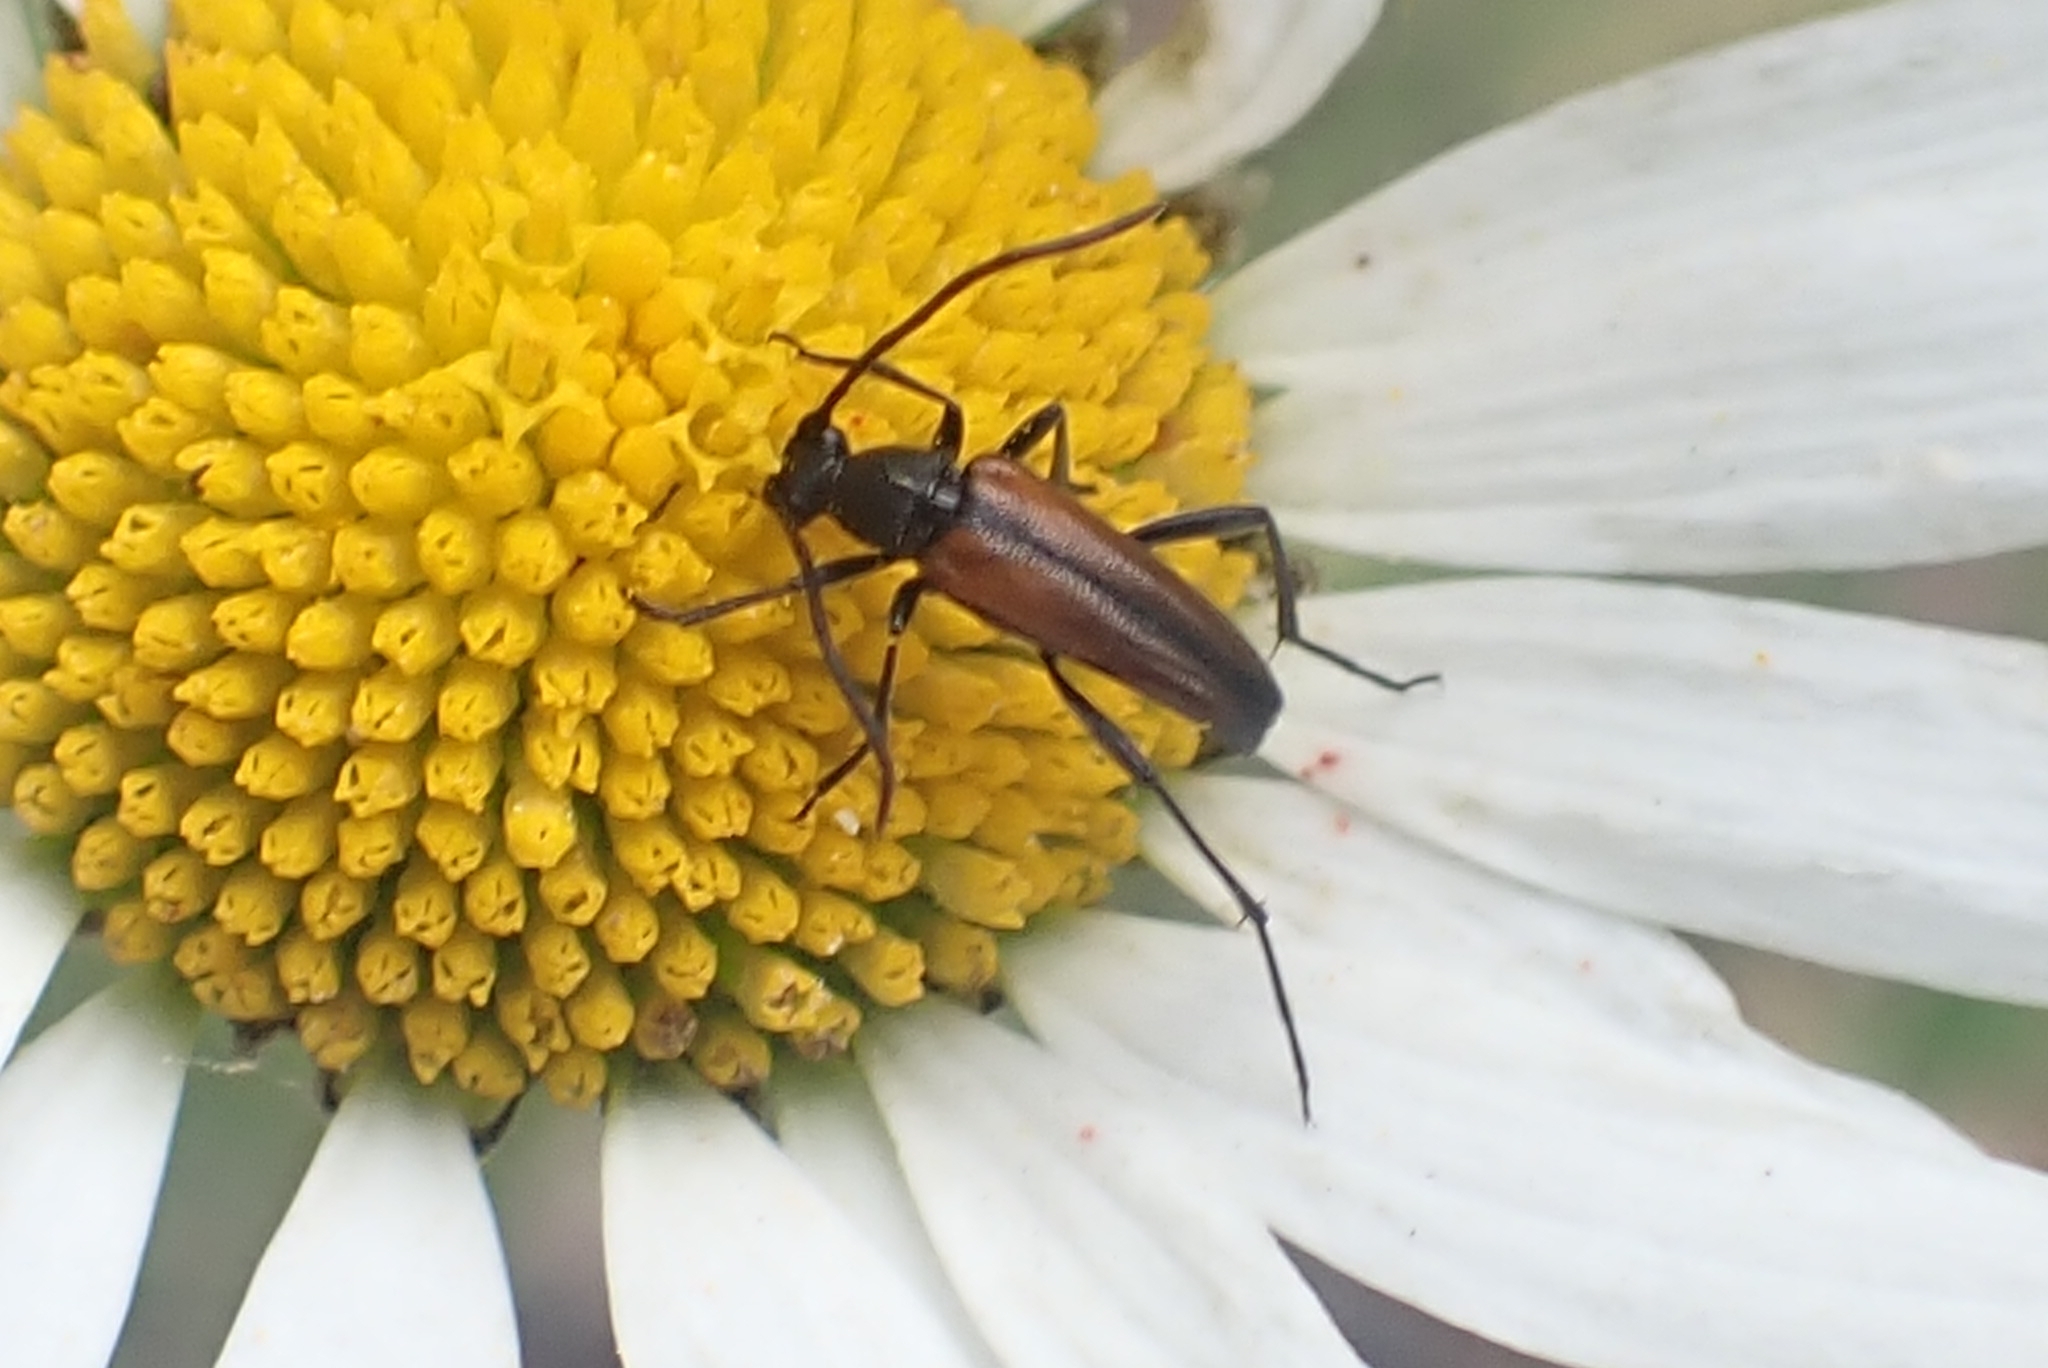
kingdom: Animalia
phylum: Arthropoda
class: Insecta
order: Coleoptera
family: Cerambycidae
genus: Stenurella
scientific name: Stenurella melanura
